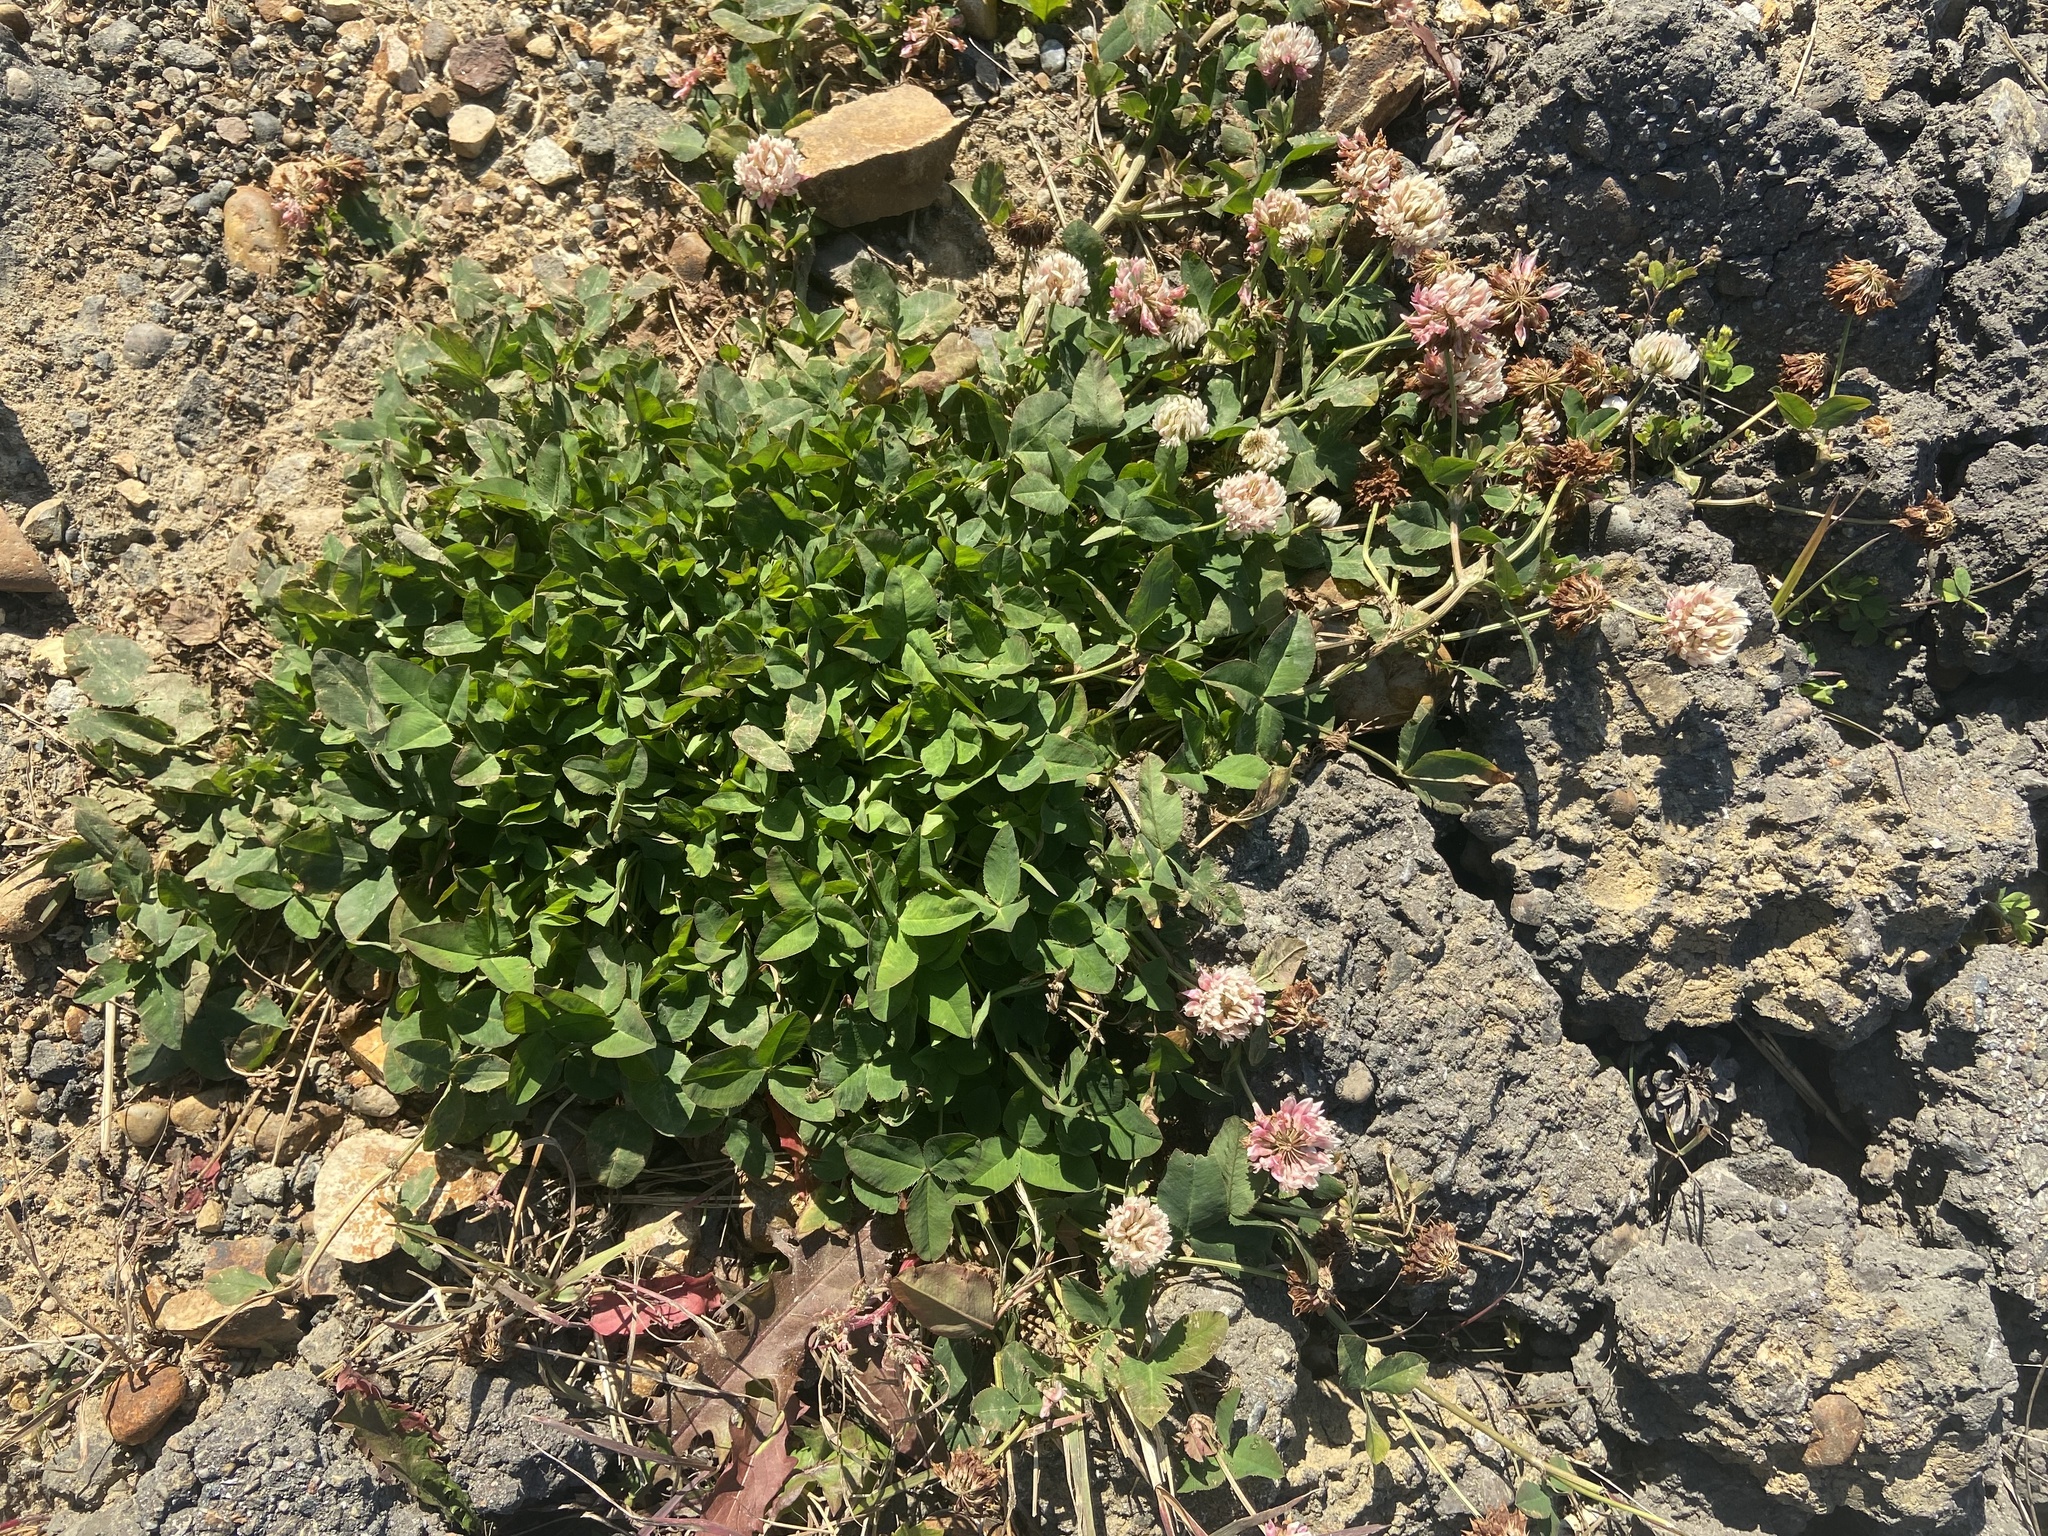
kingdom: Plantae
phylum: Tracheophyta
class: Magnoliopsida
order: Fabales
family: Fabaceae
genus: Trifolium
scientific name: Trifolium hybridum
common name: Alsike clover
